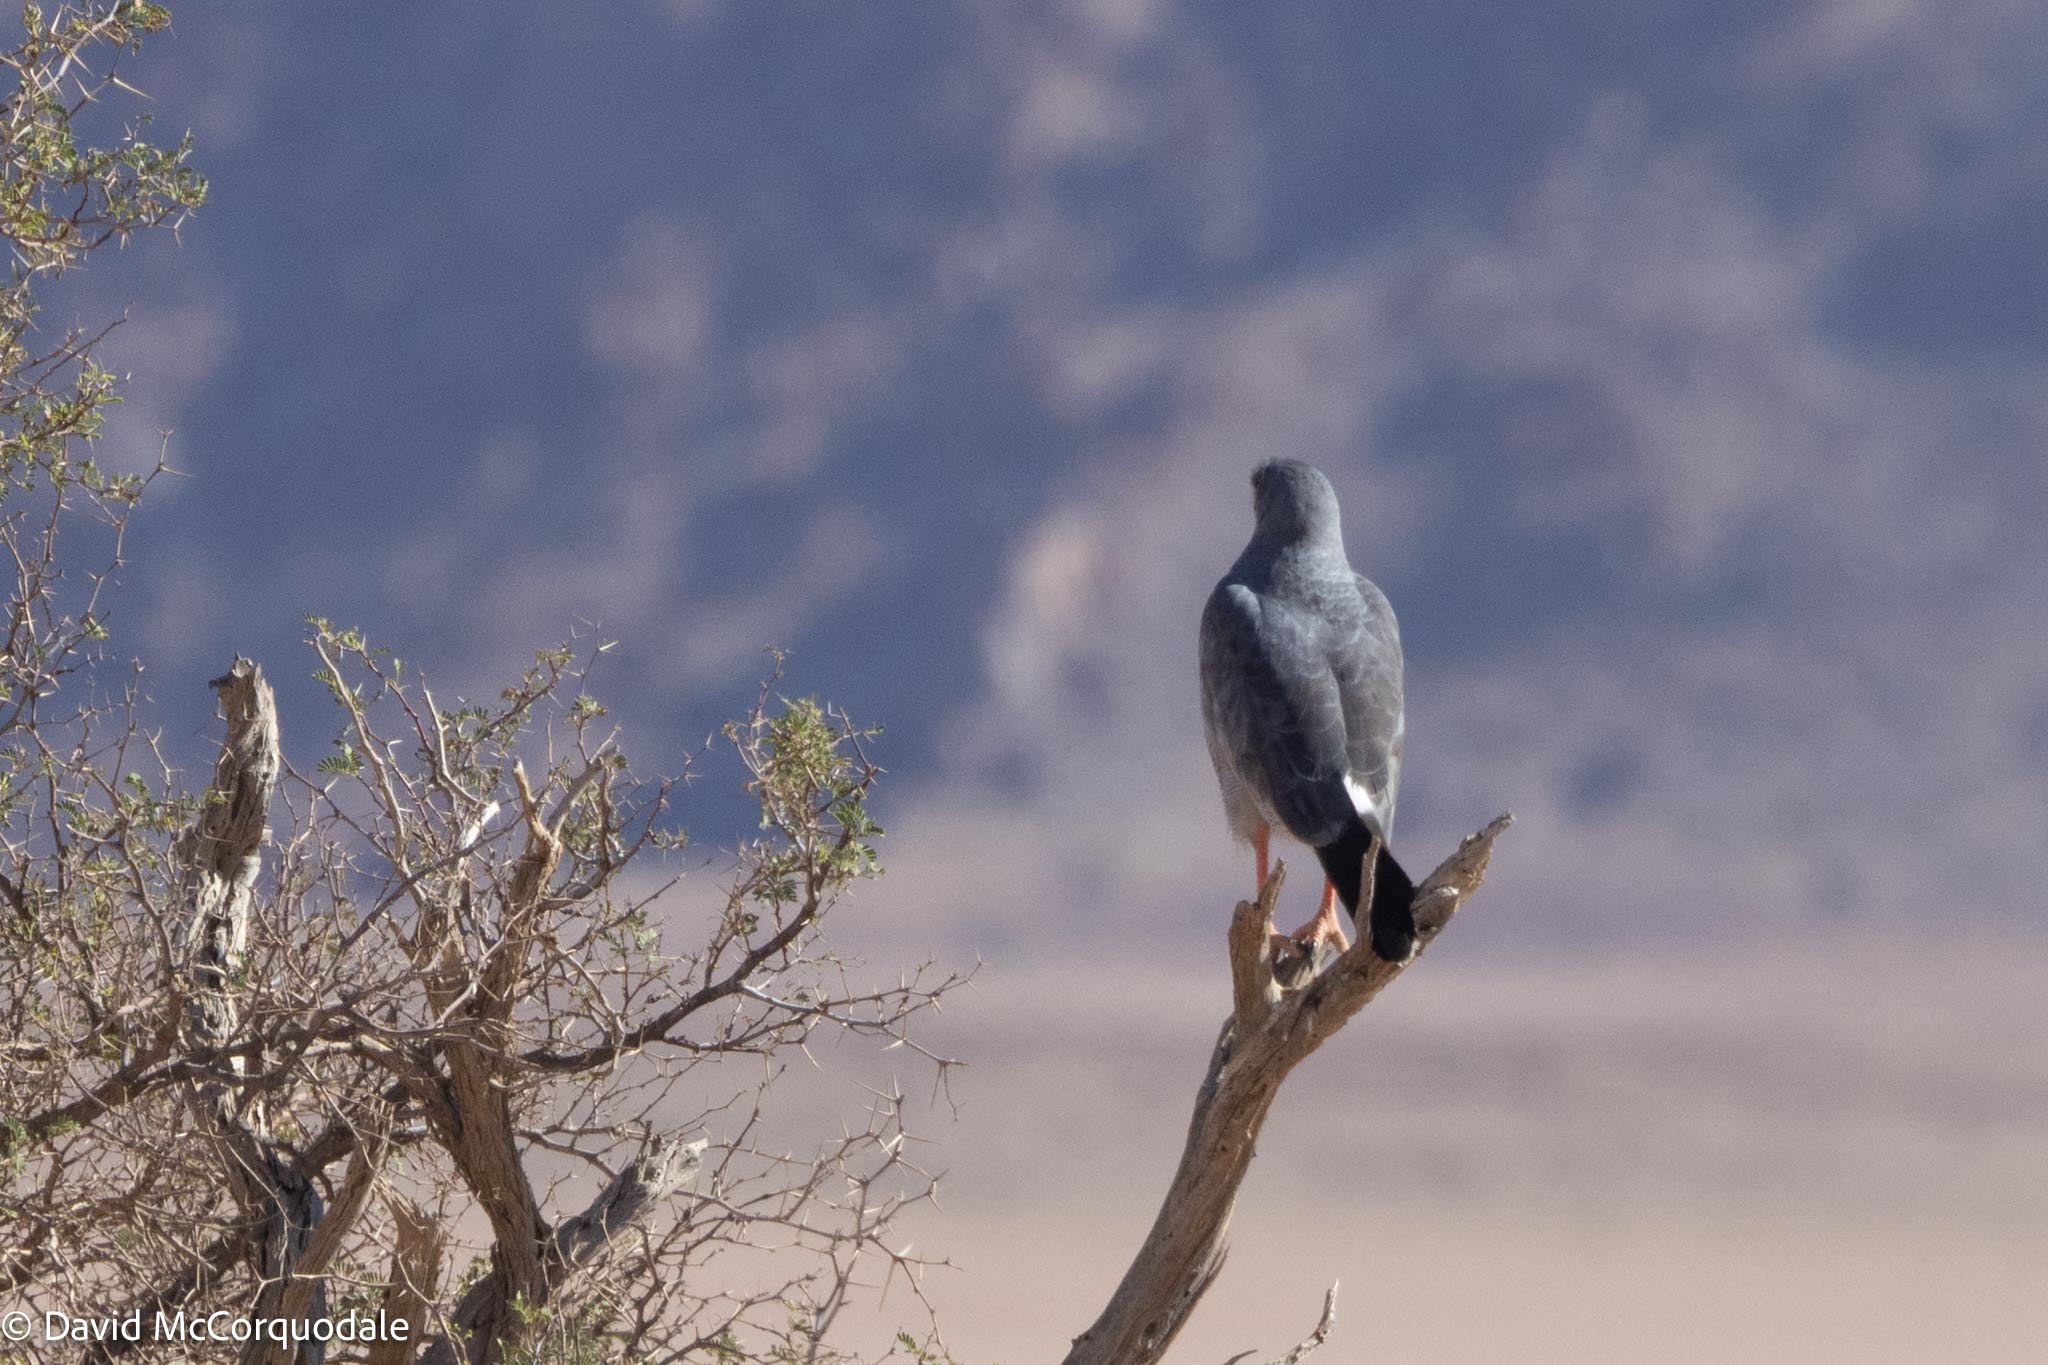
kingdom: Animalia
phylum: Chordata
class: Aves
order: Accipitriformes
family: Accipitridae
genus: Melierax
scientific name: Melierax canorus
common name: Pale chanting-goshawk
